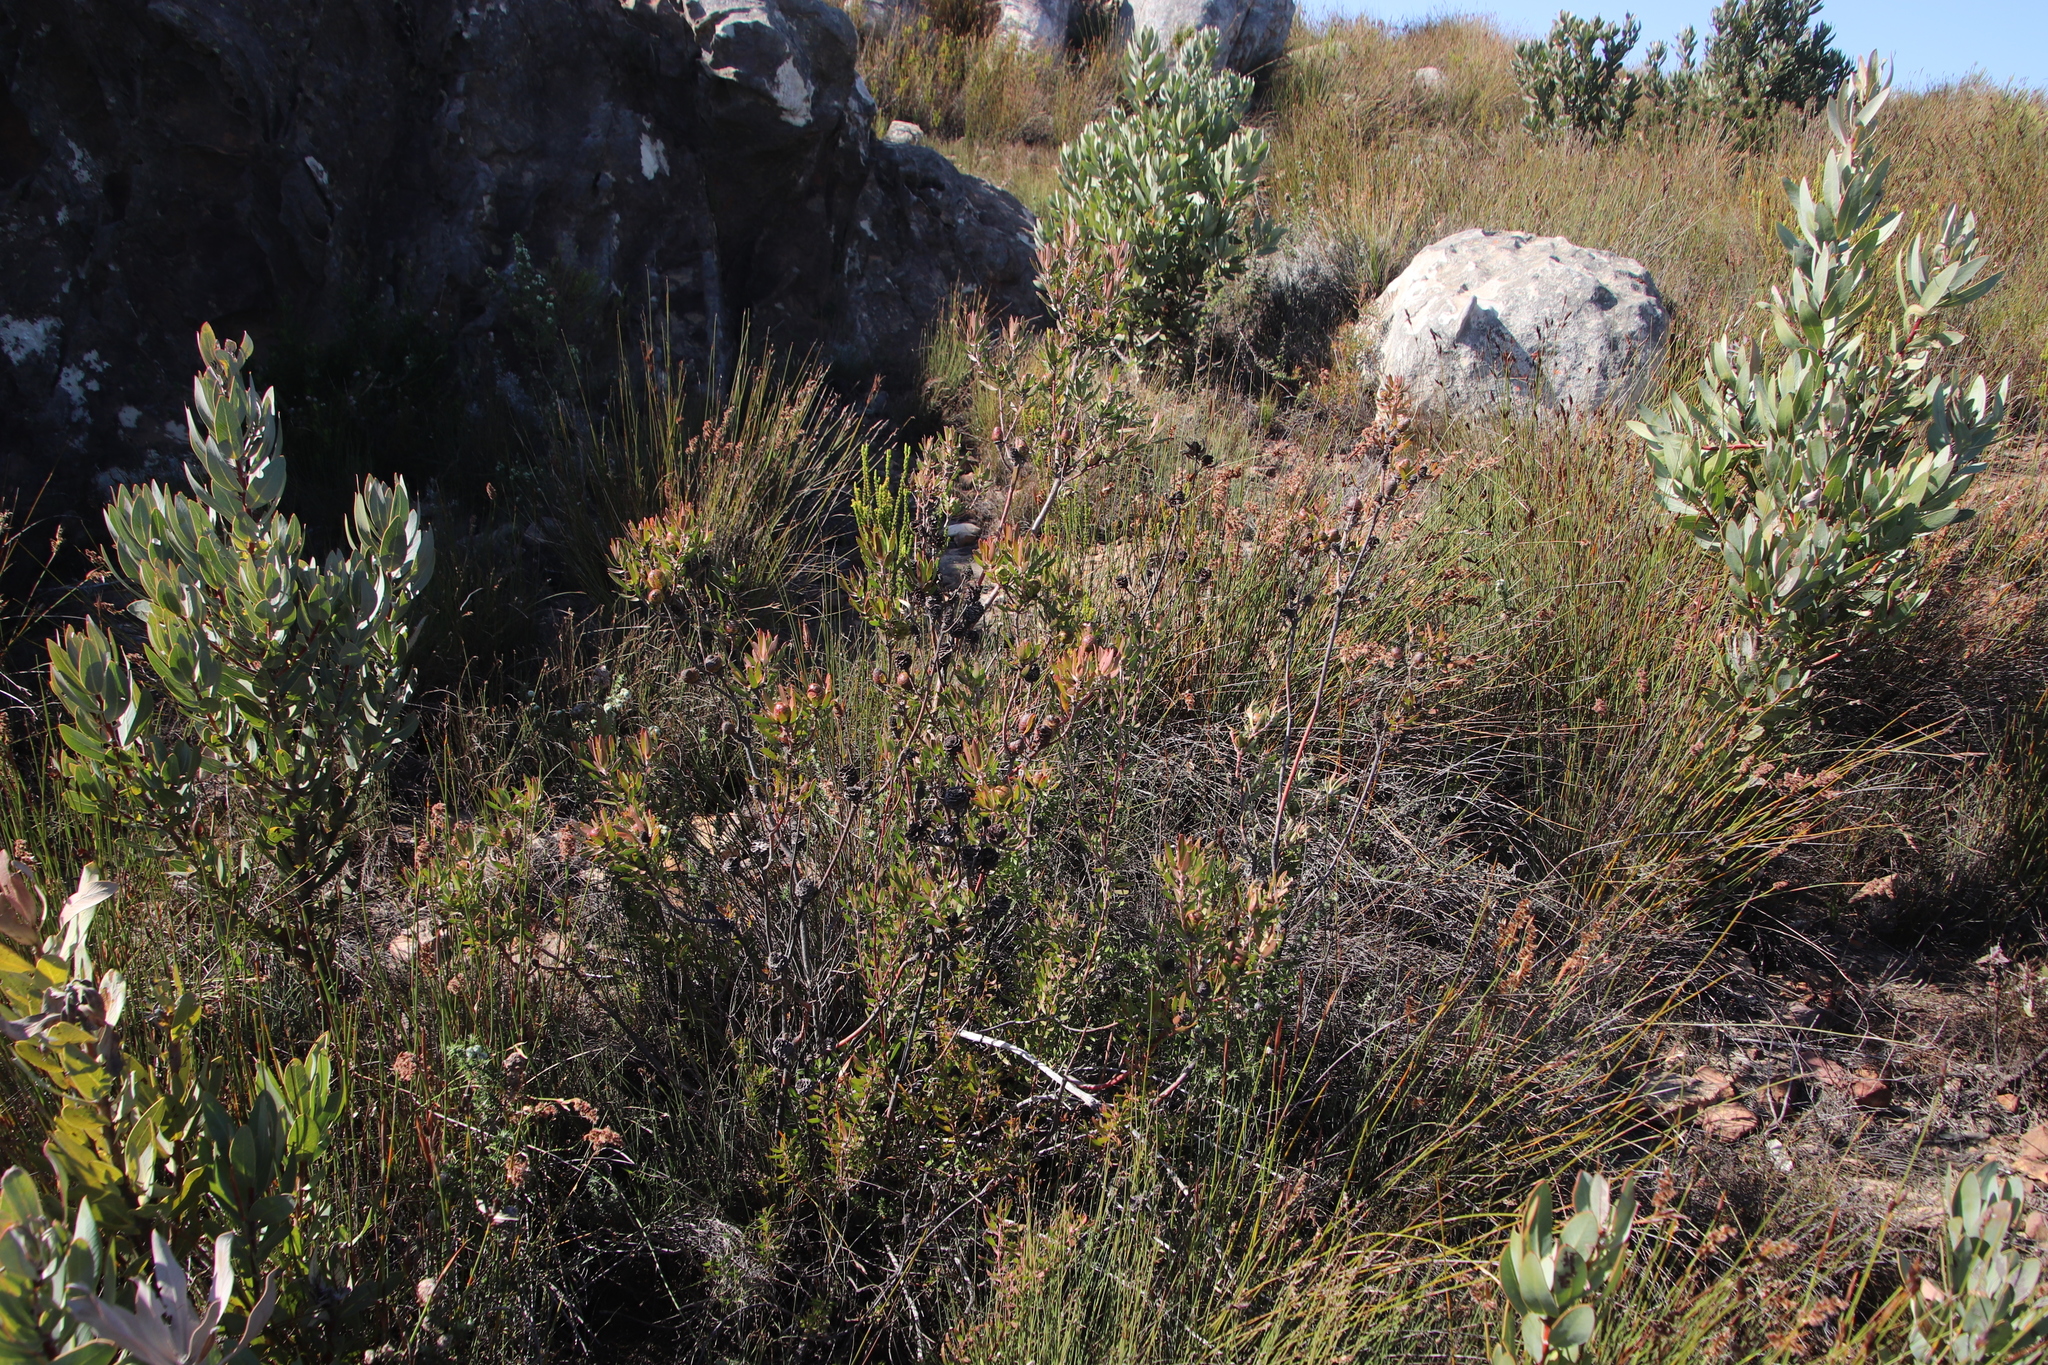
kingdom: Plantae
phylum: Tracheophyta
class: Magnoliopsida
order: Proteales
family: Proteaceae
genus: Leucadendron
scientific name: Leucadendron spissifolium
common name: Spear-leaf conebush
